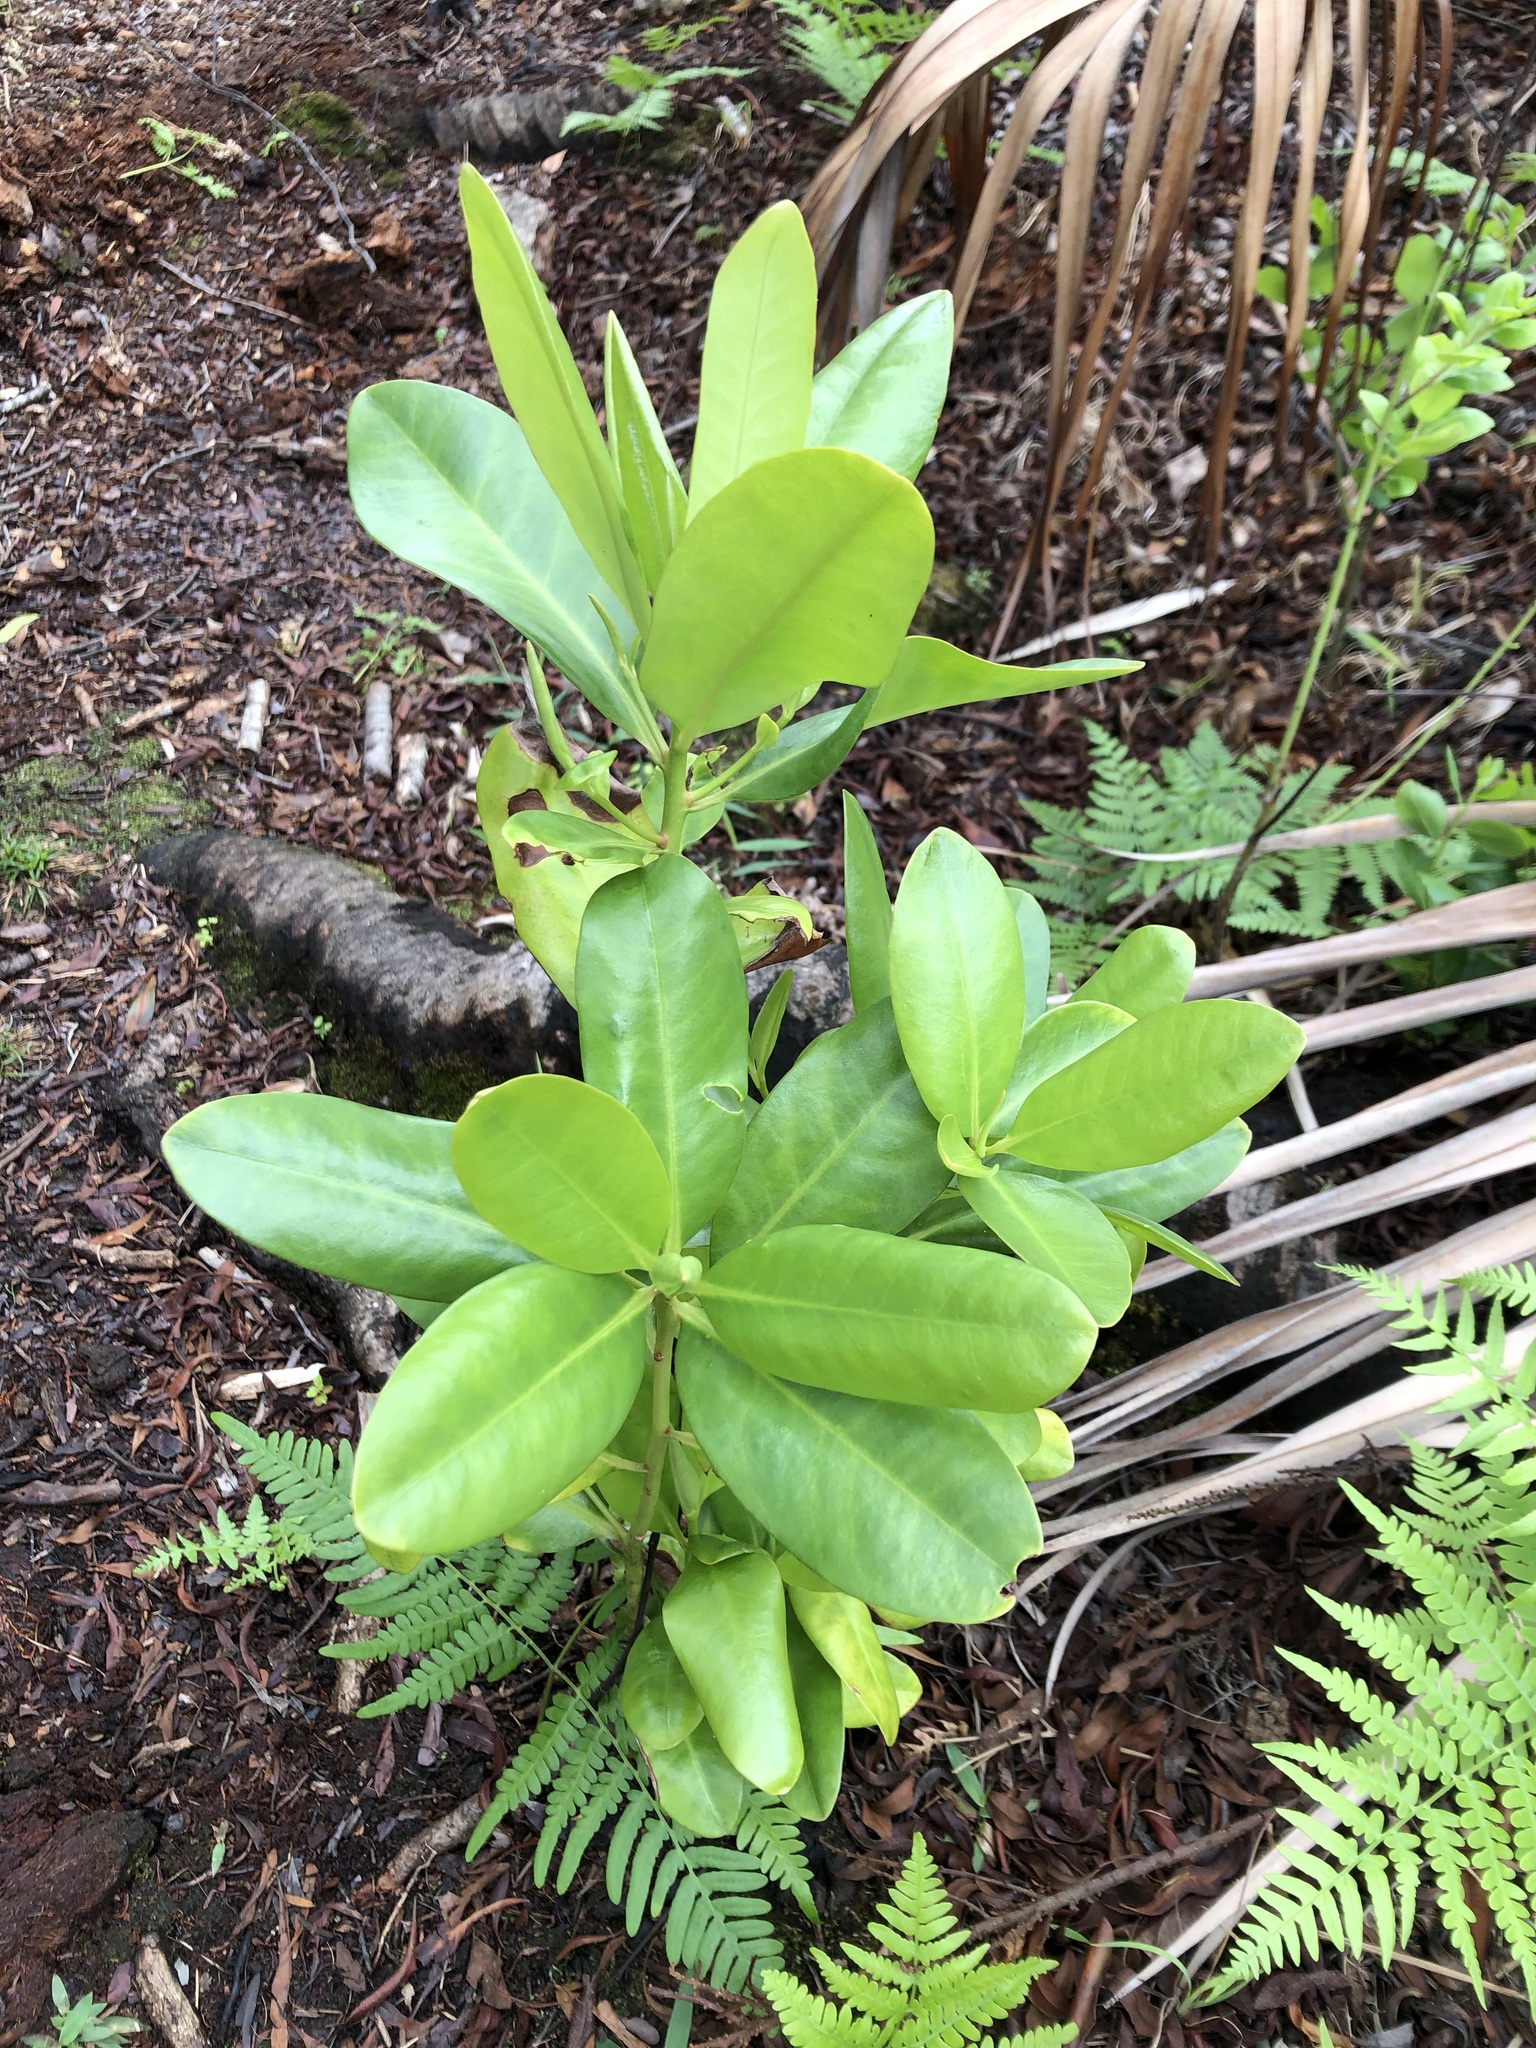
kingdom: Plantae
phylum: Tracheophyta
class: Magnoliopsida
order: Ericales
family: Primulaceae
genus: Myrsine
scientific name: Myrsine floridana
